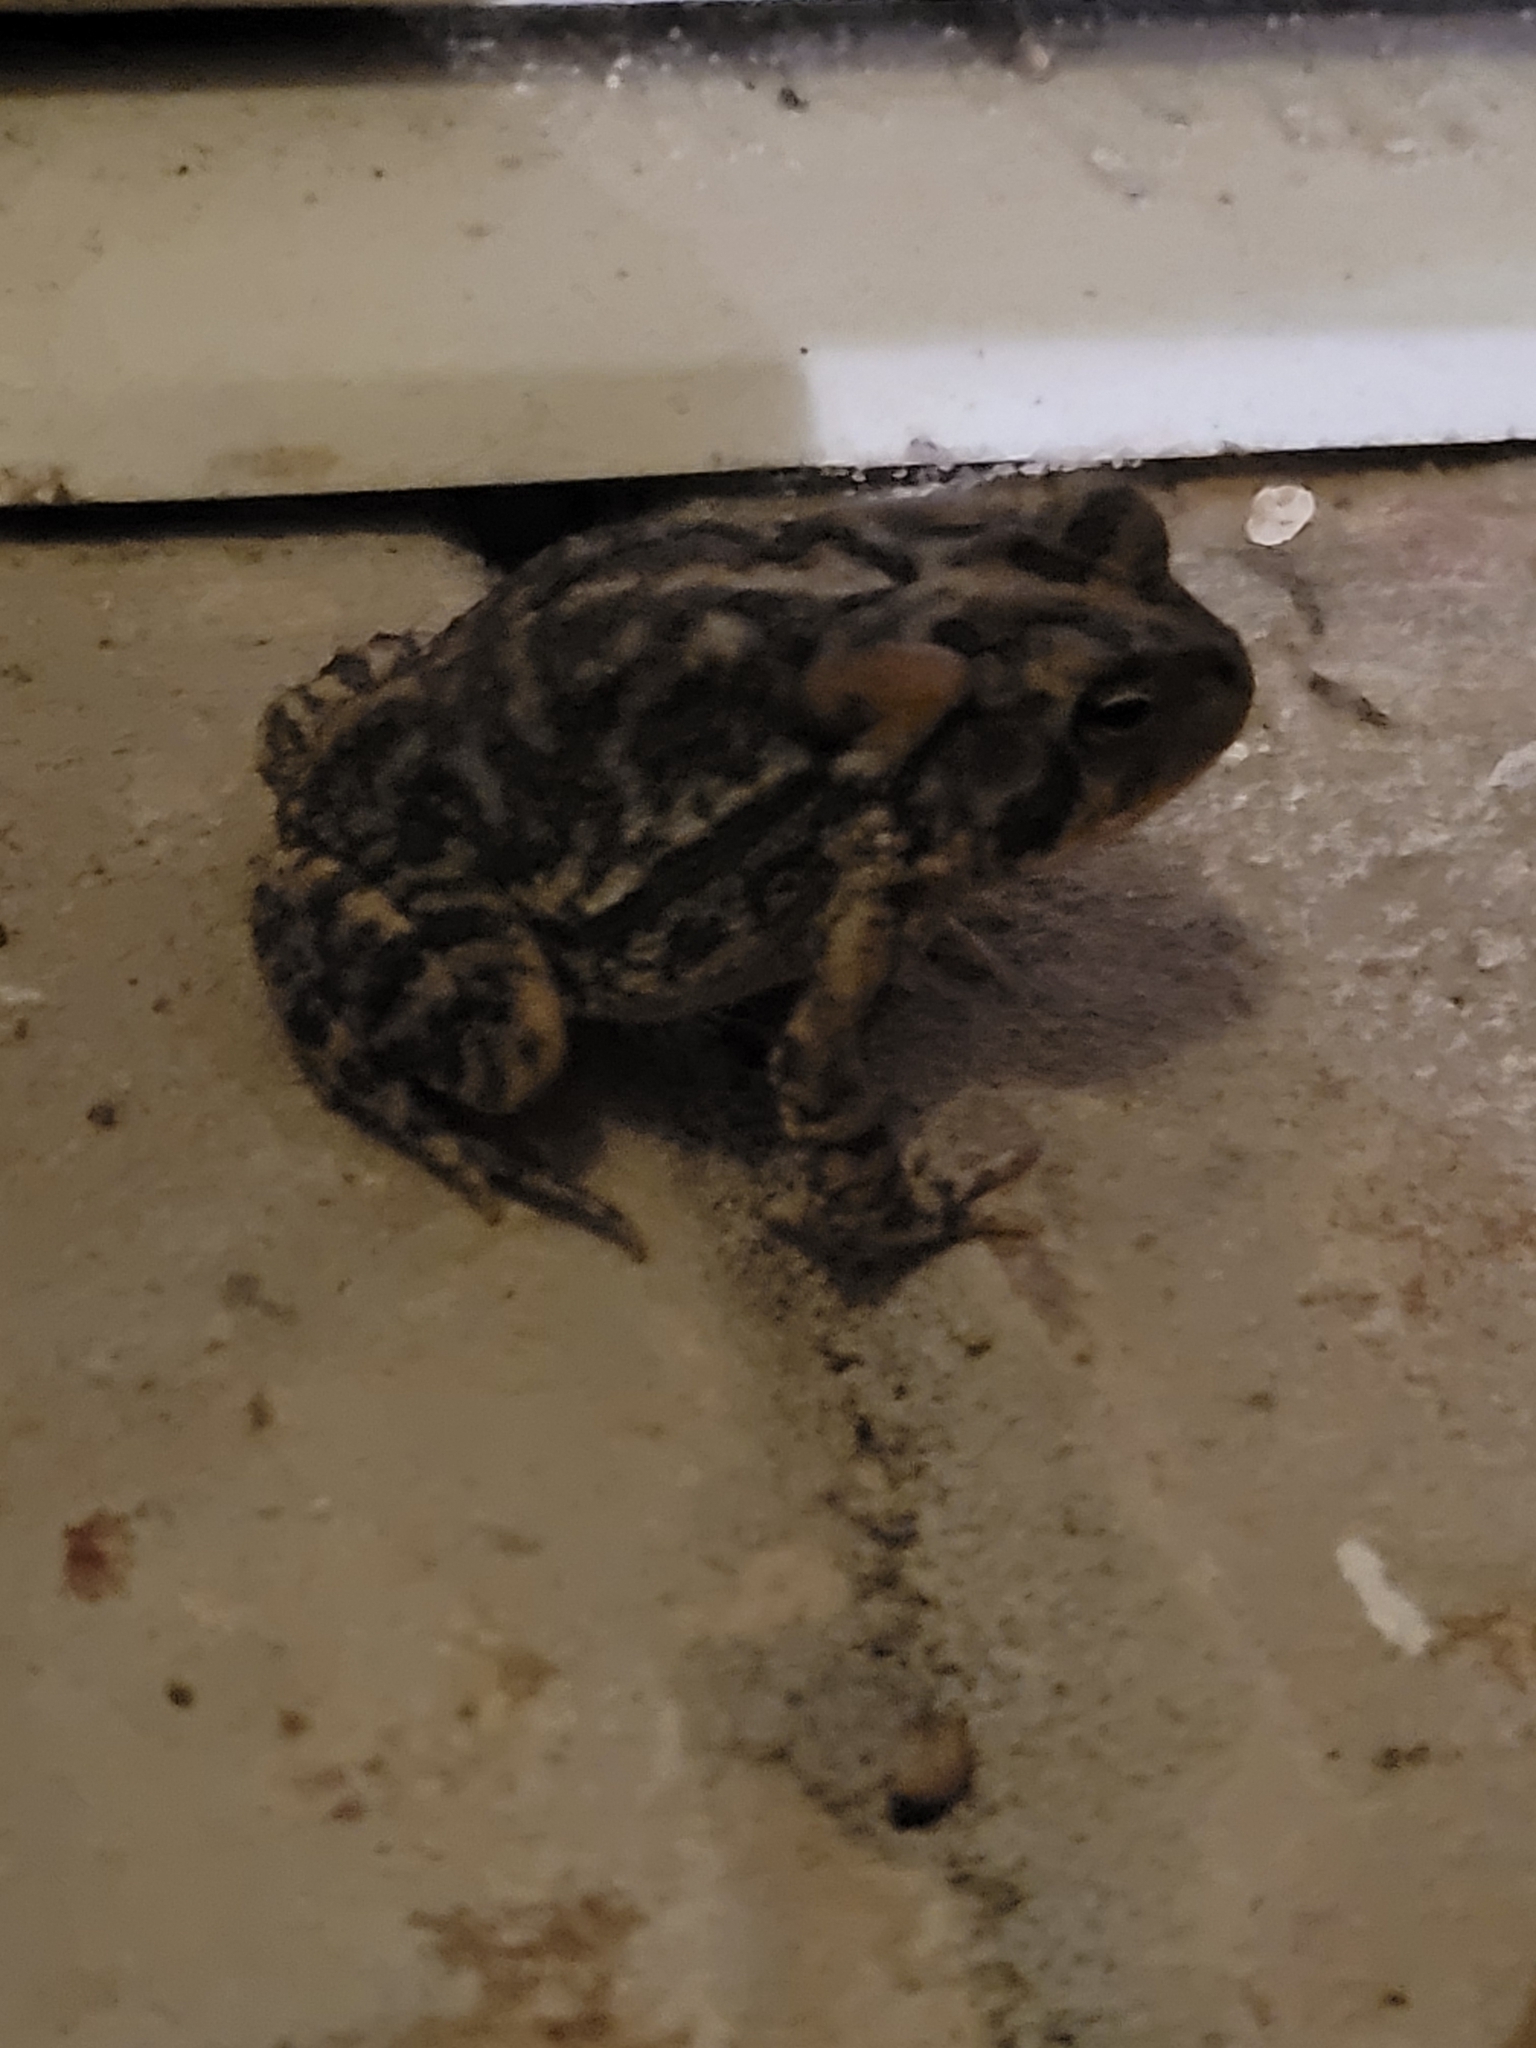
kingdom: Animalia
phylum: Chordata
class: Amphibia
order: Anura
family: Bufonidae
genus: Anaxyrus
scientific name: Anaxyrus terrestris
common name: Southern toad
